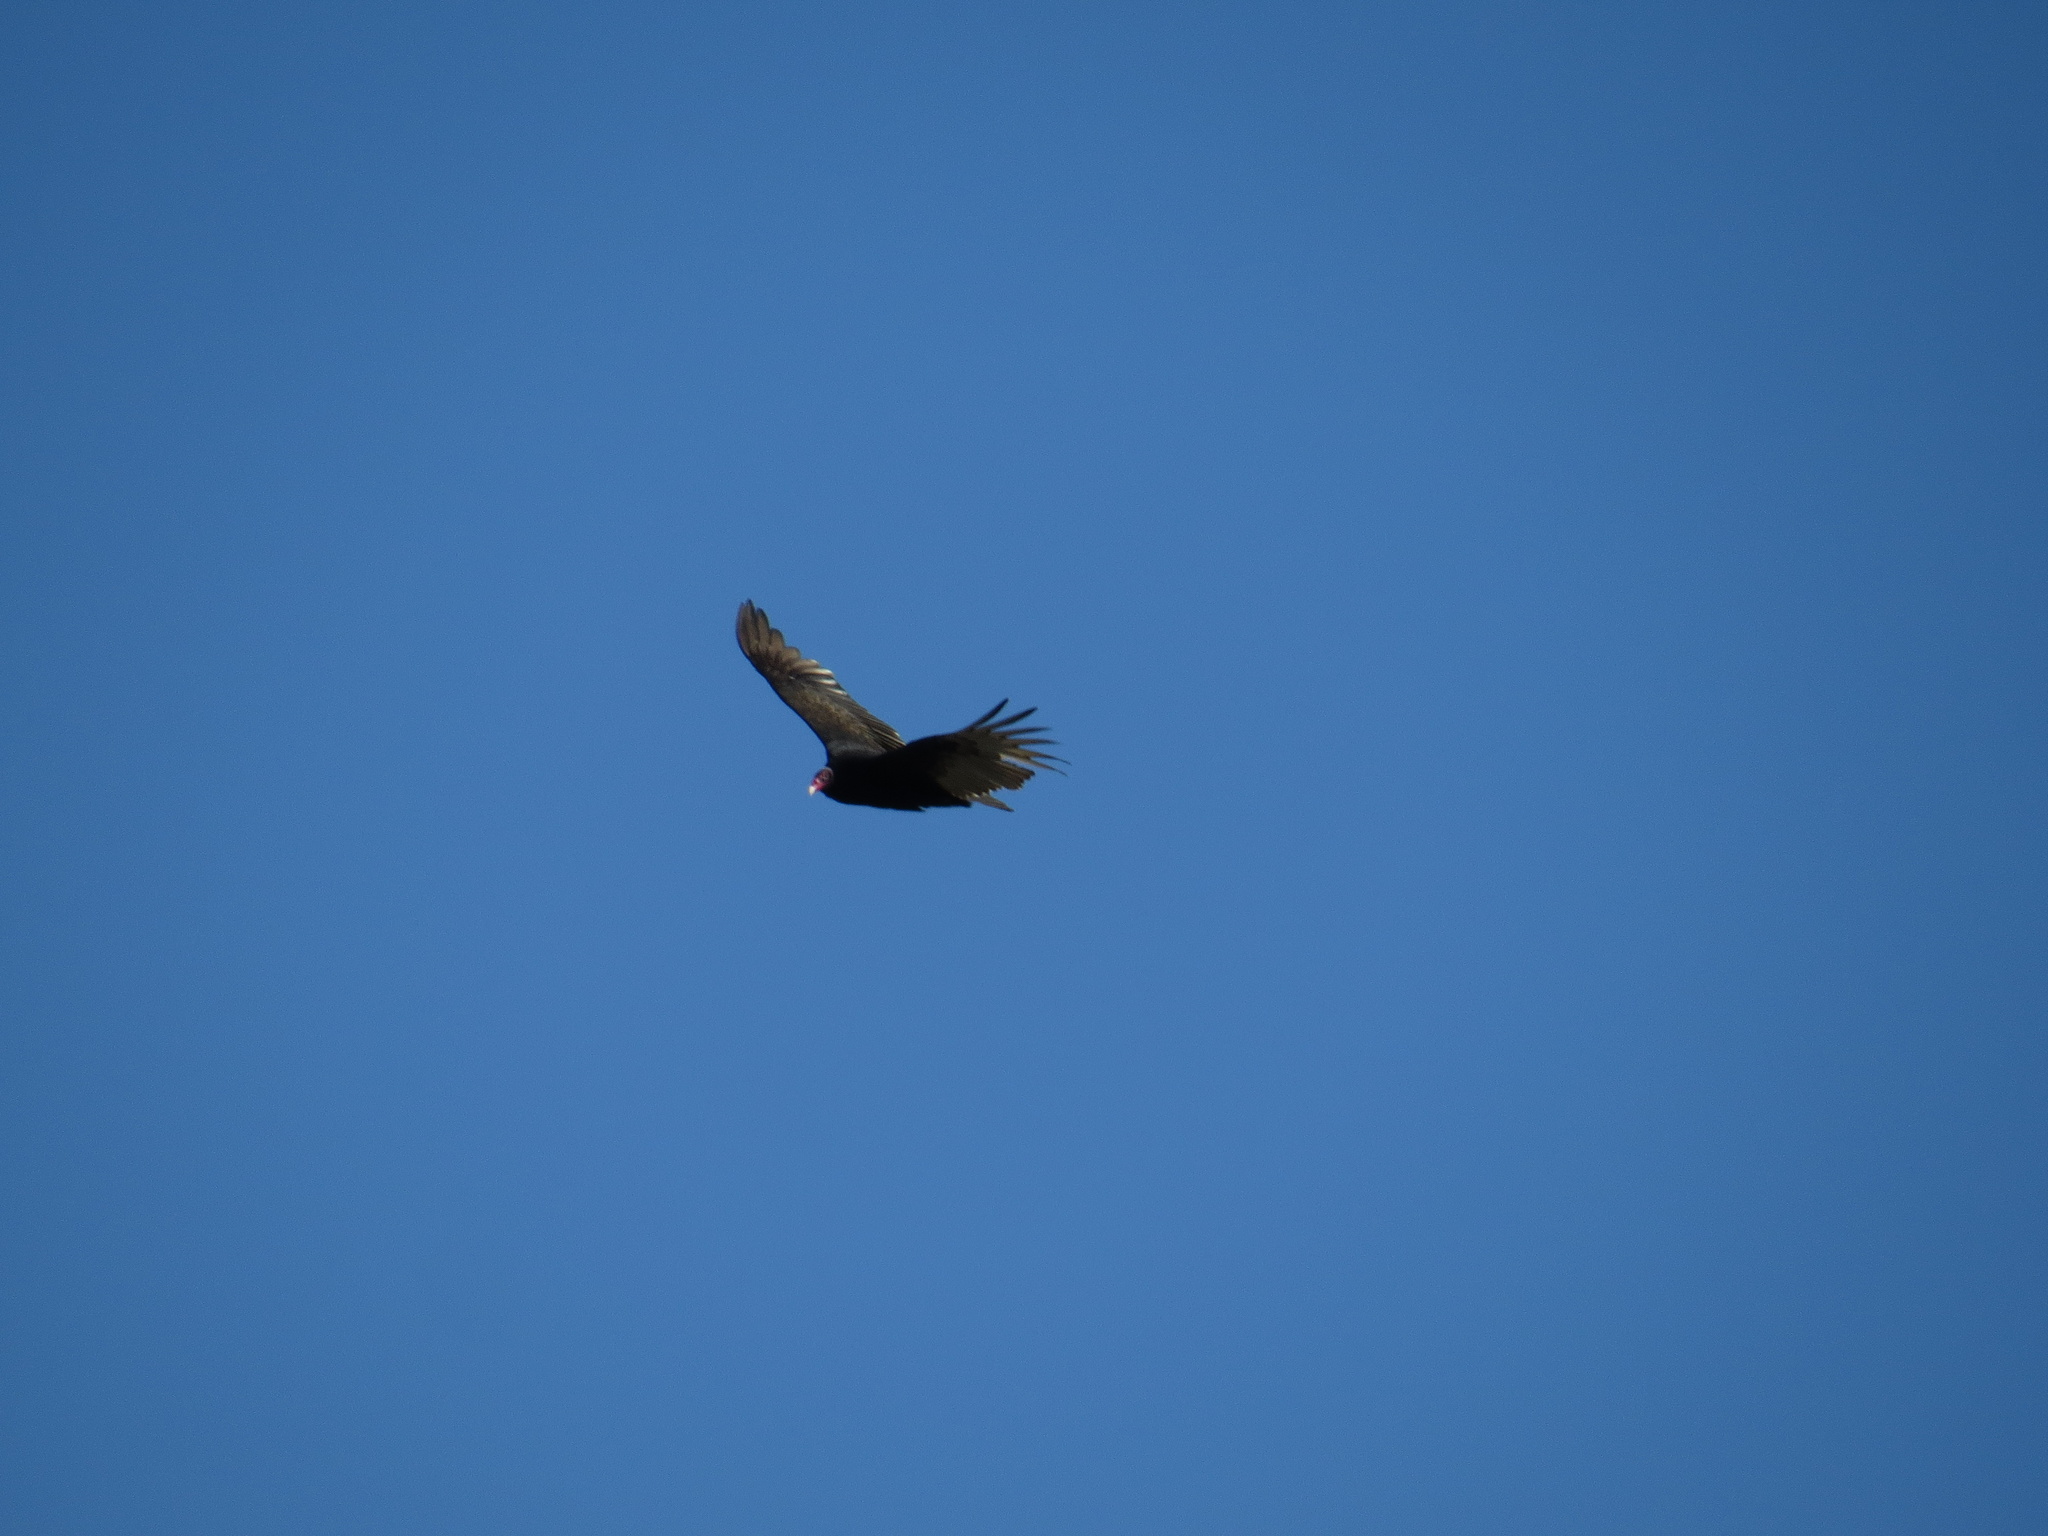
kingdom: Animalia
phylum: Chordata
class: Aves
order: Accipitriformes
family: Cathartidae
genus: Cathartes
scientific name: Cathartes aura
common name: Turkey vulture
